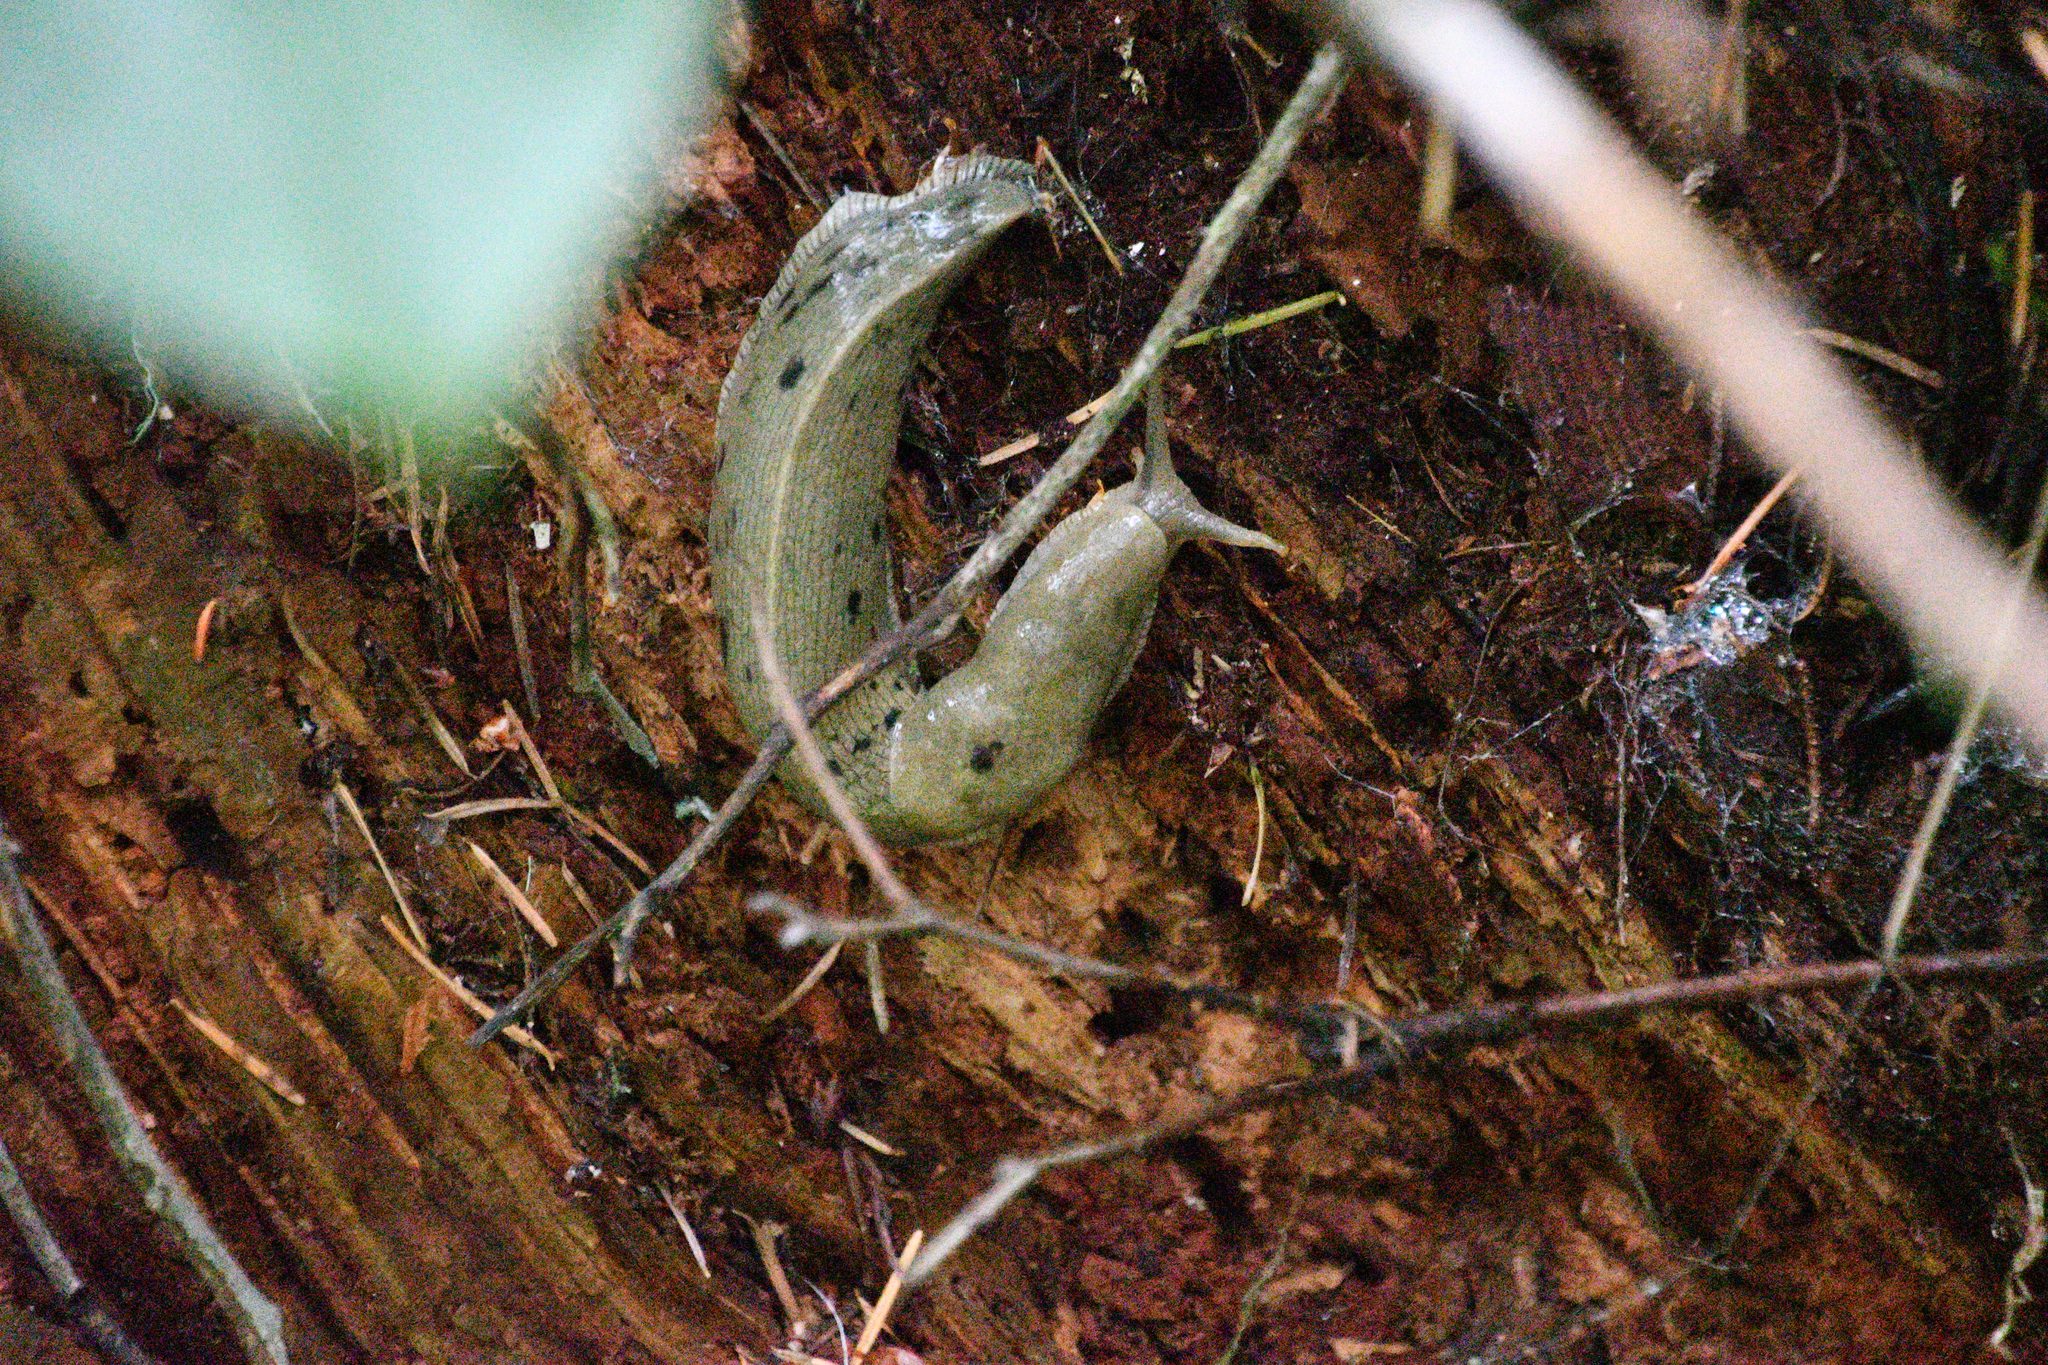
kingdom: Animalia
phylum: Mollusca
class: Gastropoda
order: Stylommatophora
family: Ariolimacidae
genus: Ariolimax
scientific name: Ariolimax columbianus
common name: Pacific banana slug
